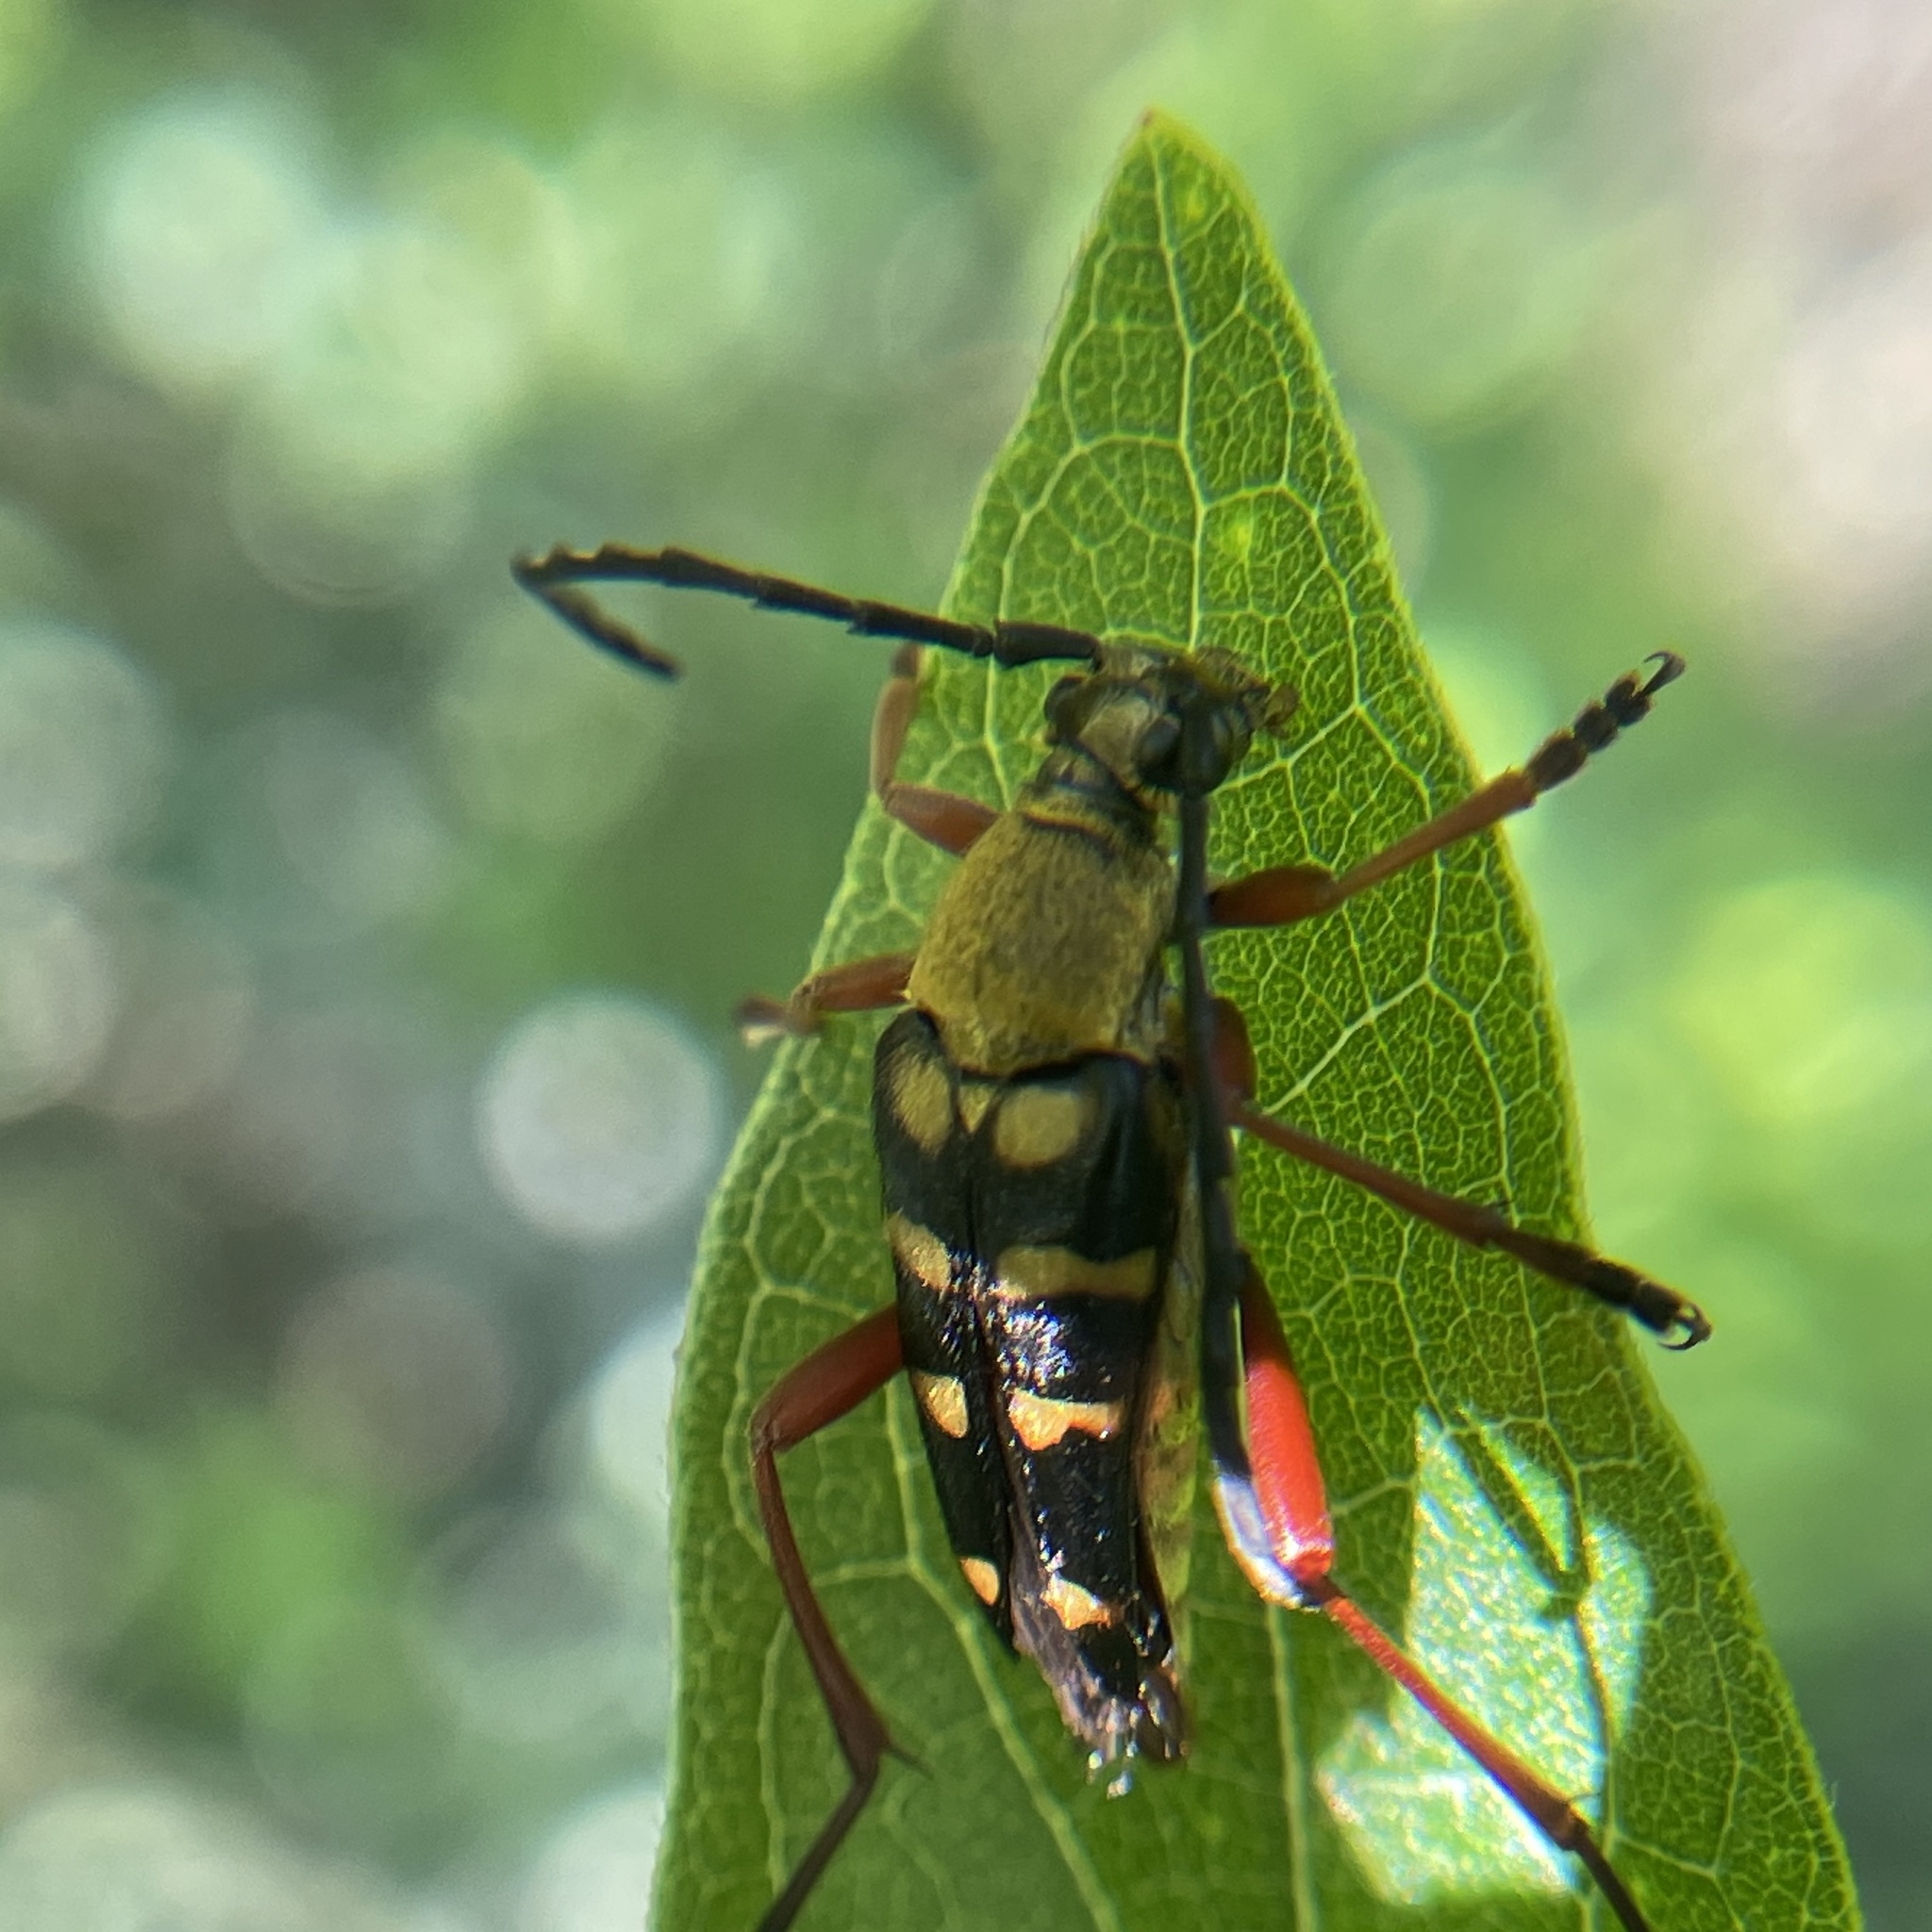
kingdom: Animalia
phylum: Arthropoda
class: Insecta
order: Coleoptera
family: Cerambycidae
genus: Typocerus
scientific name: Typocerus acuticauda
